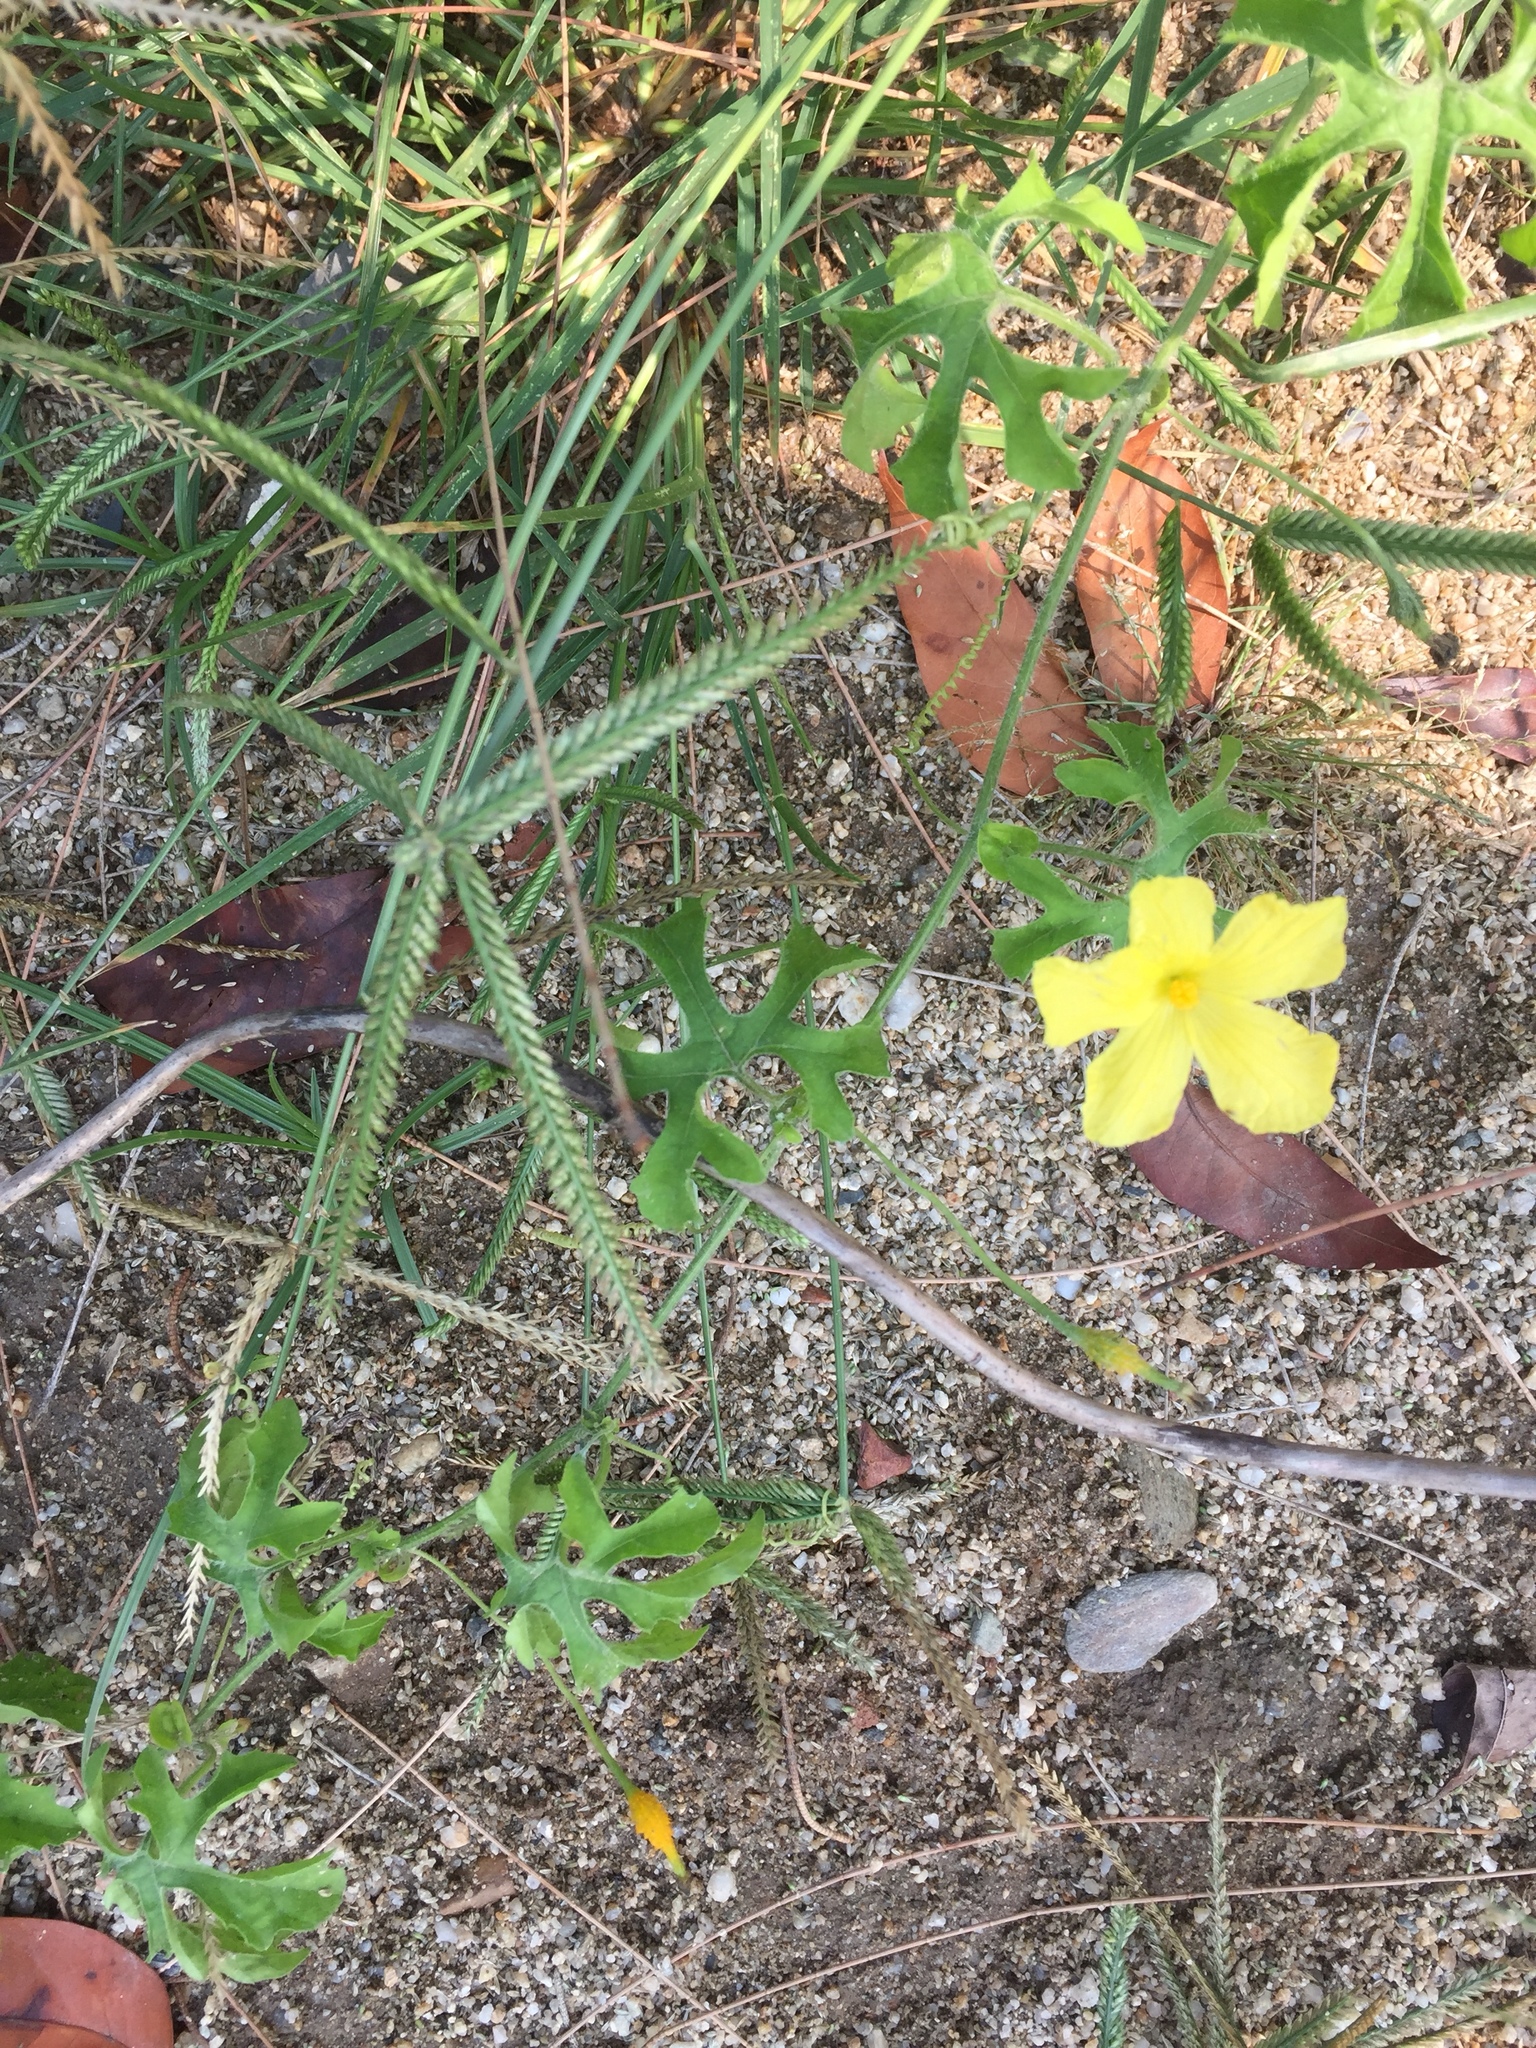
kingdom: Plantae
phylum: Tracheophyta
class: Magnoliopsida
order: Cucurbitales
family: Cucurbitaceae
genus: Momordica
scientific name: Momordica charantia
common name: Balsampear
